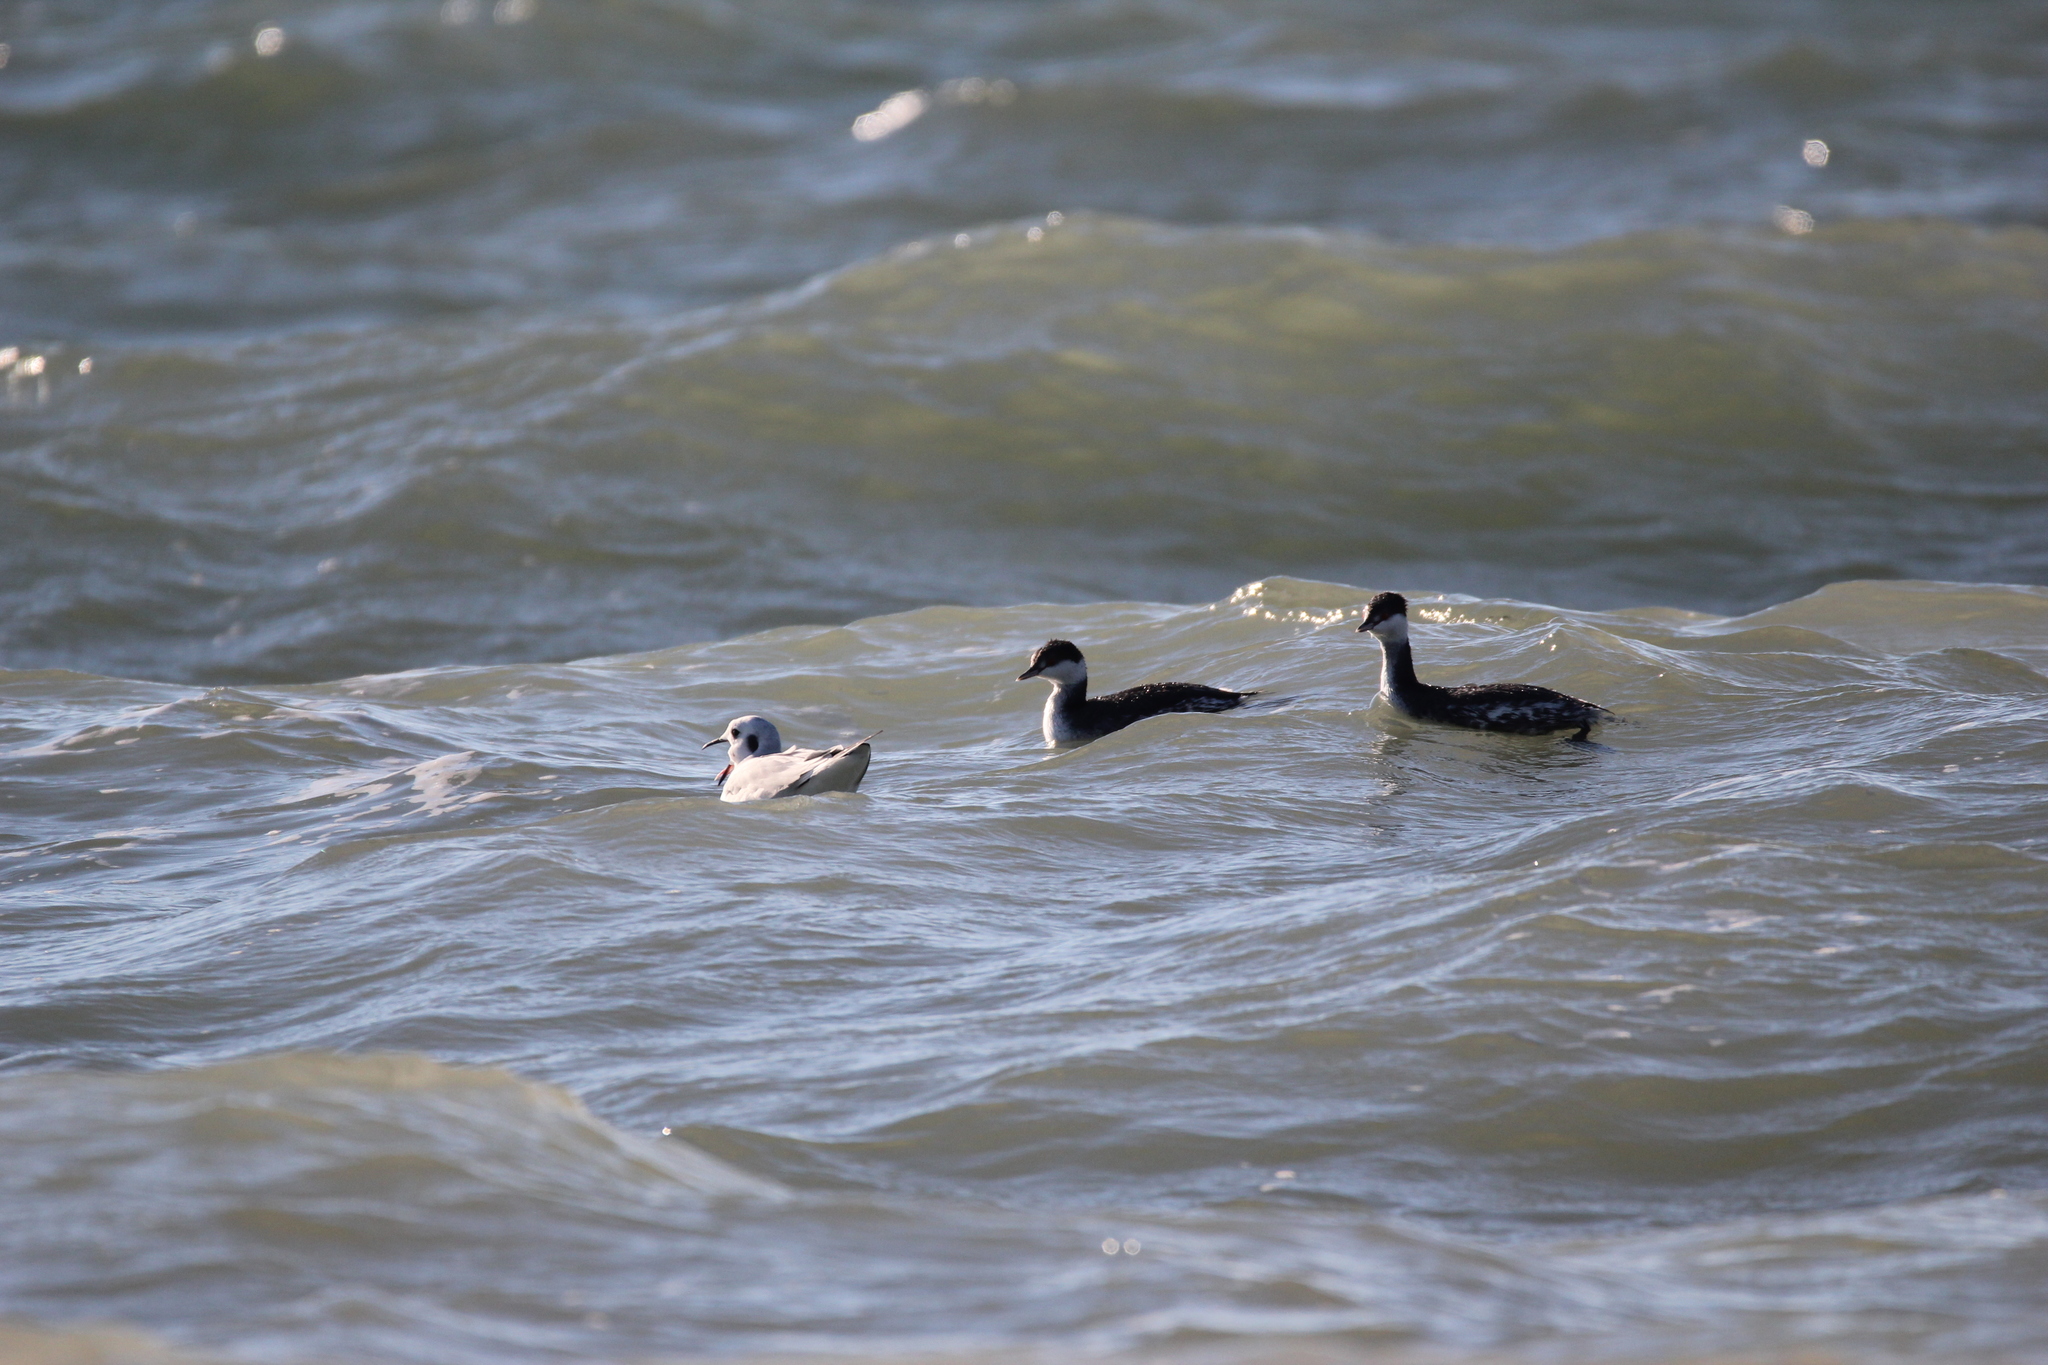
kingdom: Animalia
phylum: Chordata
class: Aves
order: Podicipediformes
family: Podicipedidae
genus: Podiceps
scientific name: Podiceps auritus
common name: Horned grebe
